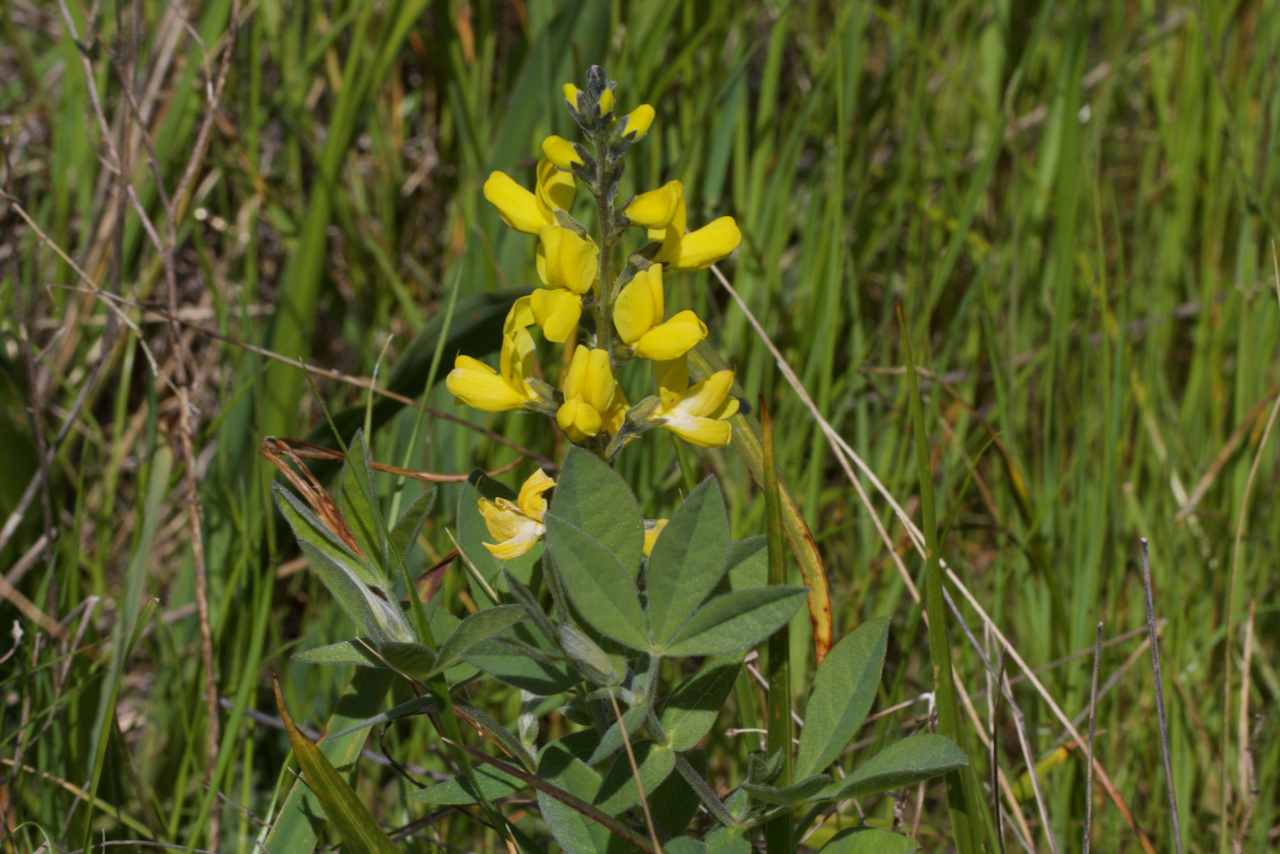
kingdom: Plantae
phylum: Tracheophyta
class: Magnoliopsida
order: Fabales
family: Fabaceae
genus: Thermopsis
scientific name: Thermopsis californica
